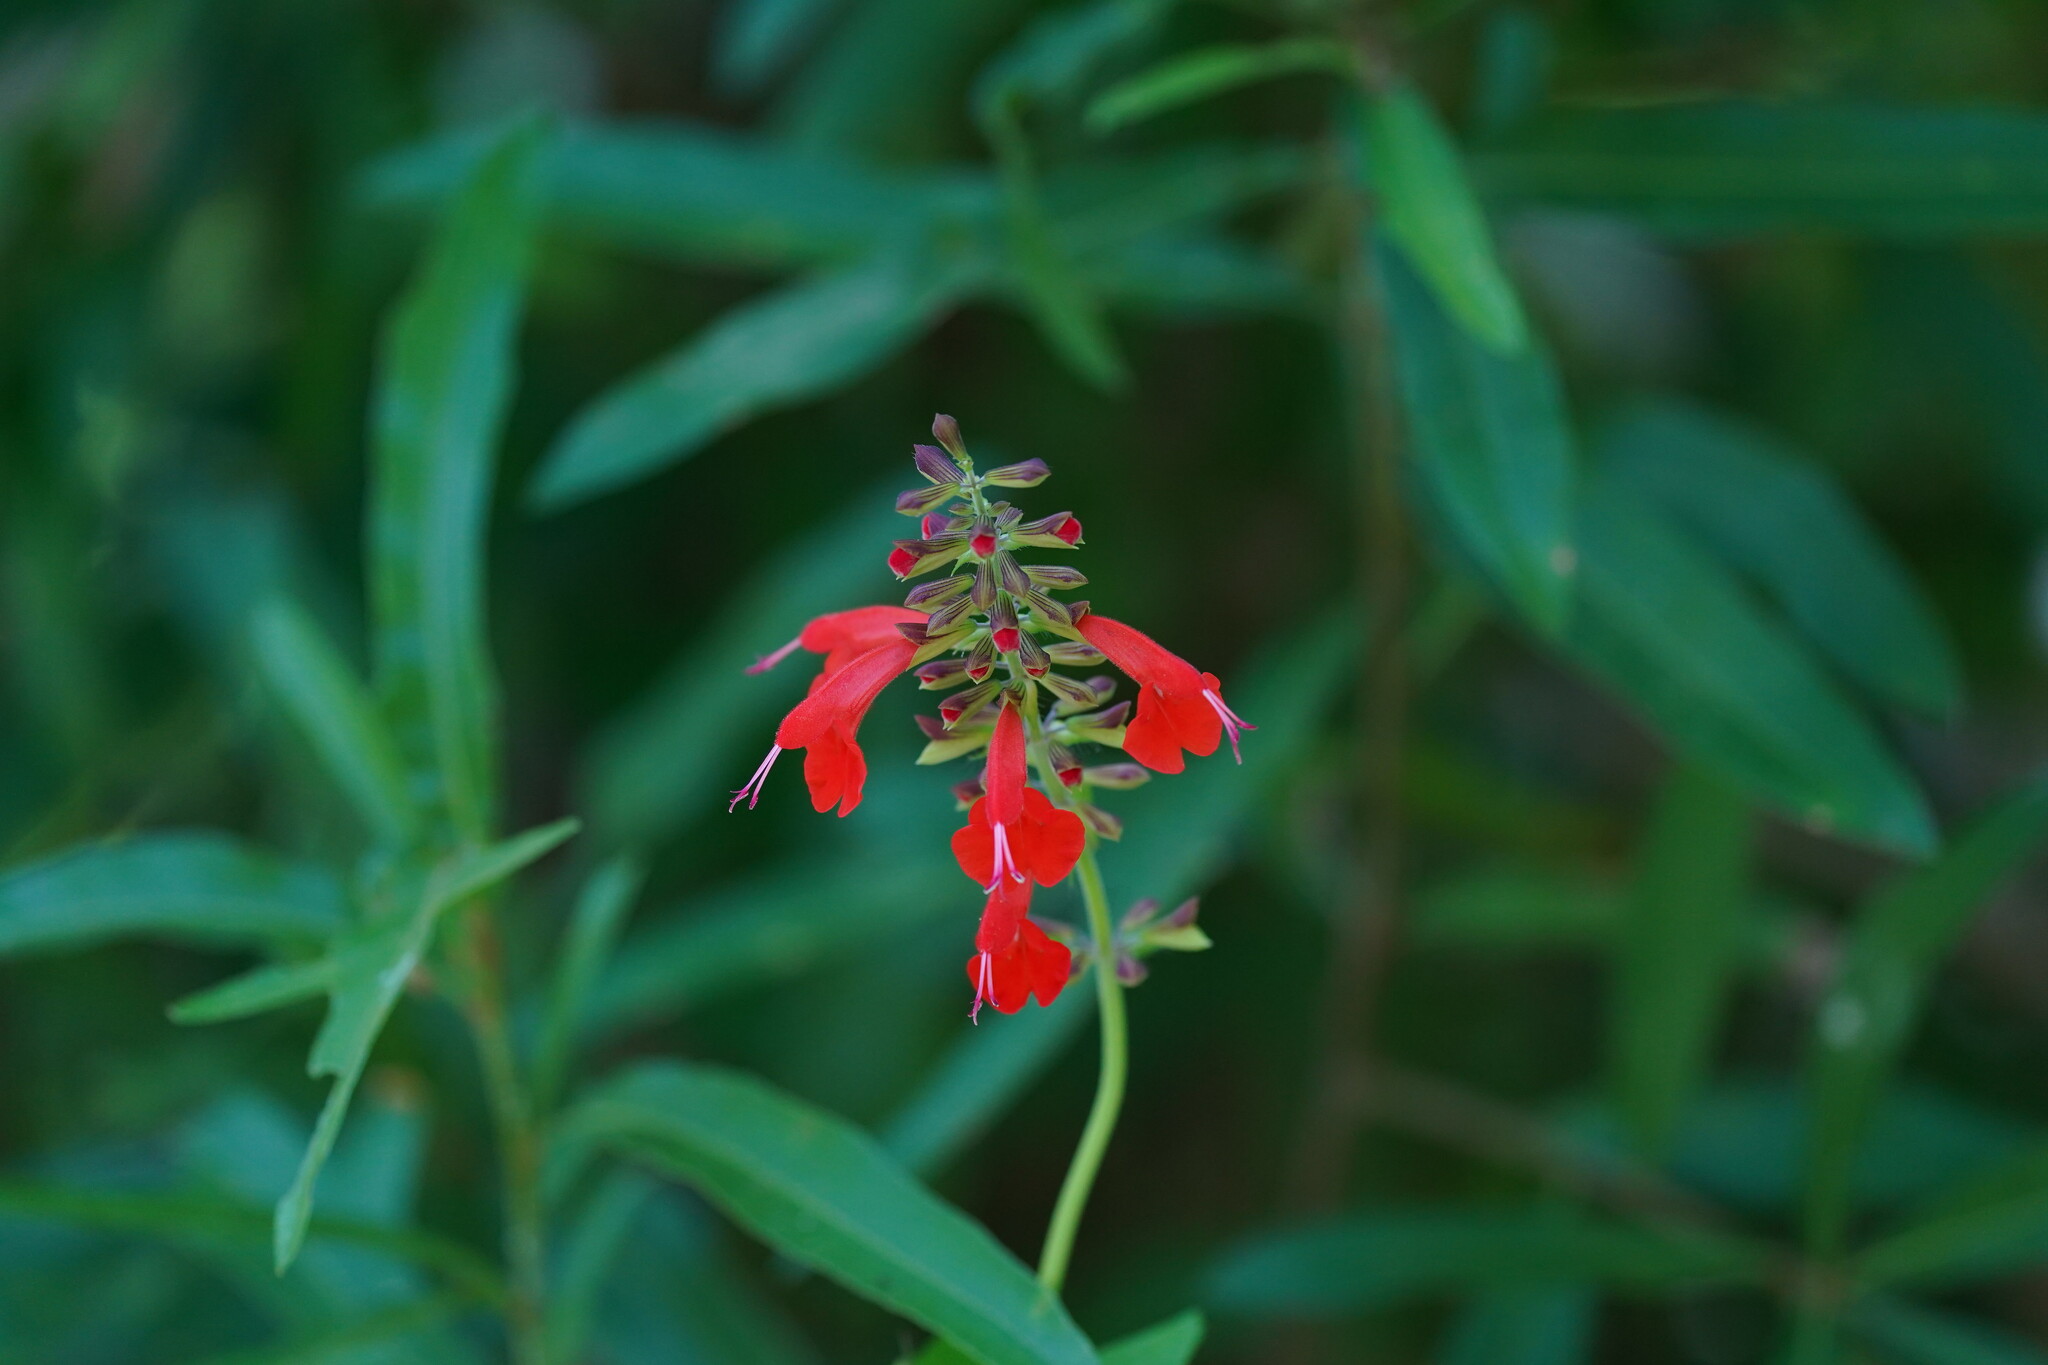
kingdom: Plantae
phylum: Tracheophyta
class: Magnoliopsida
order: Lamiales
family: Lamiaceae
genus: Salvia
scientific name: Salvia coccinea
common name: Blood sage
